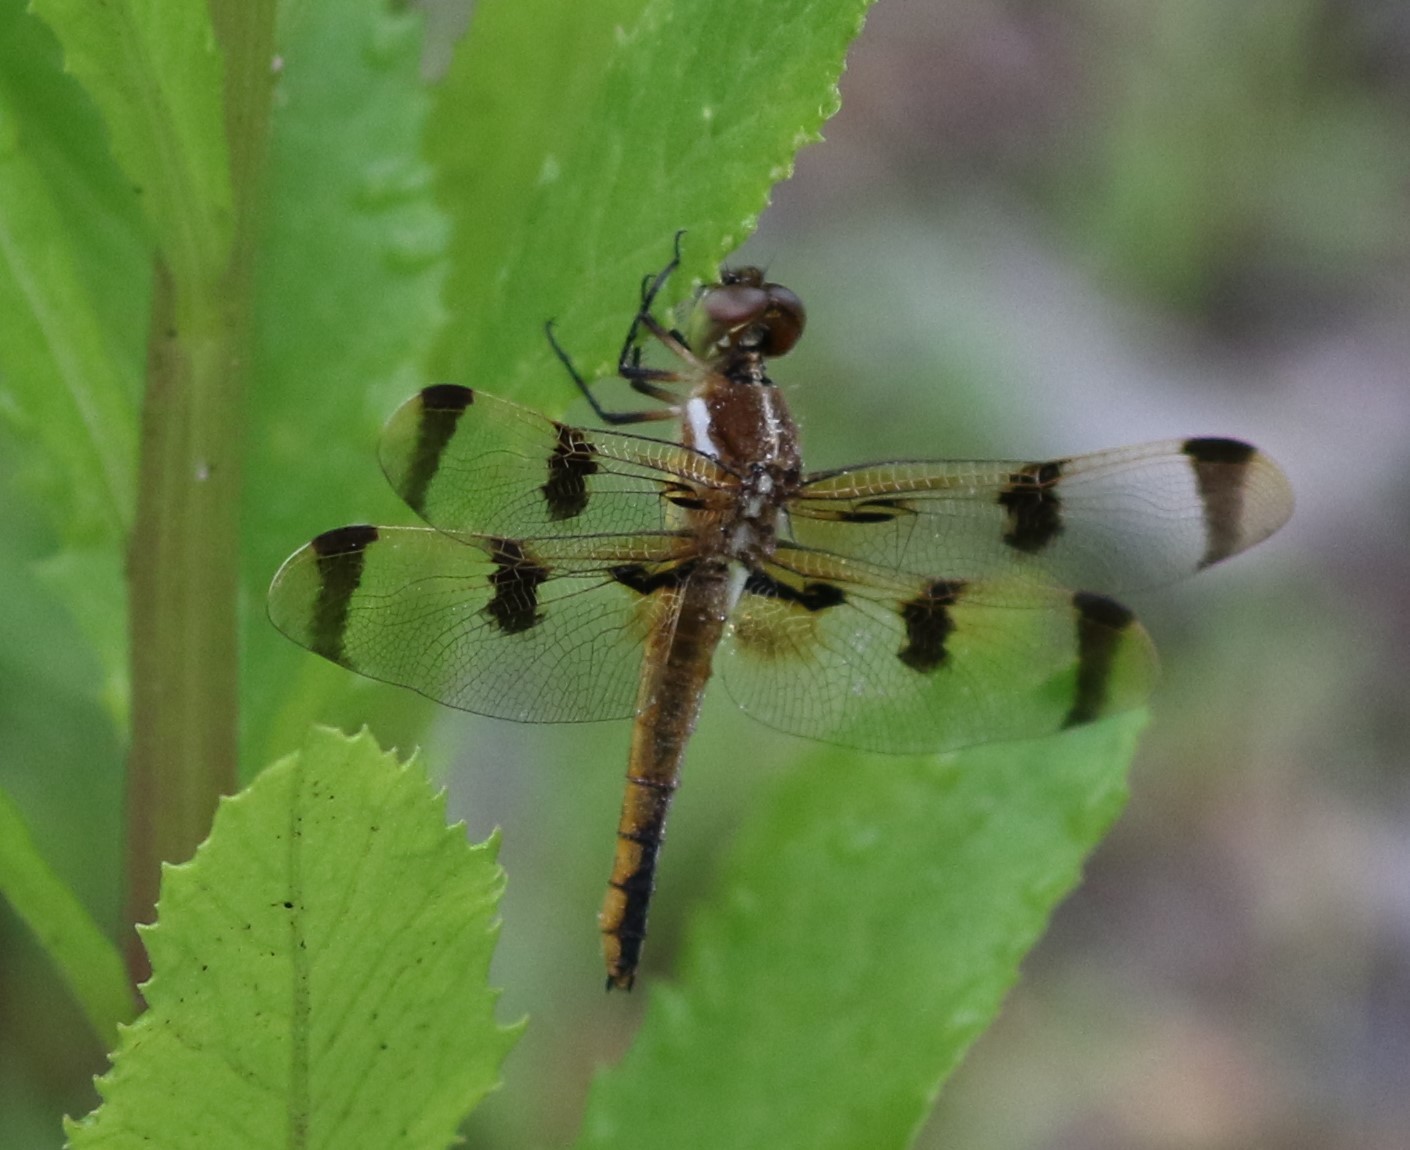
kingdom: Animalia
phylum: Arthropoda
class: Insecta
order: Odonata
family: Libellulidae
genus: Libellula
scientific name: Libellula semifasciata
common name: Painted skimmer
